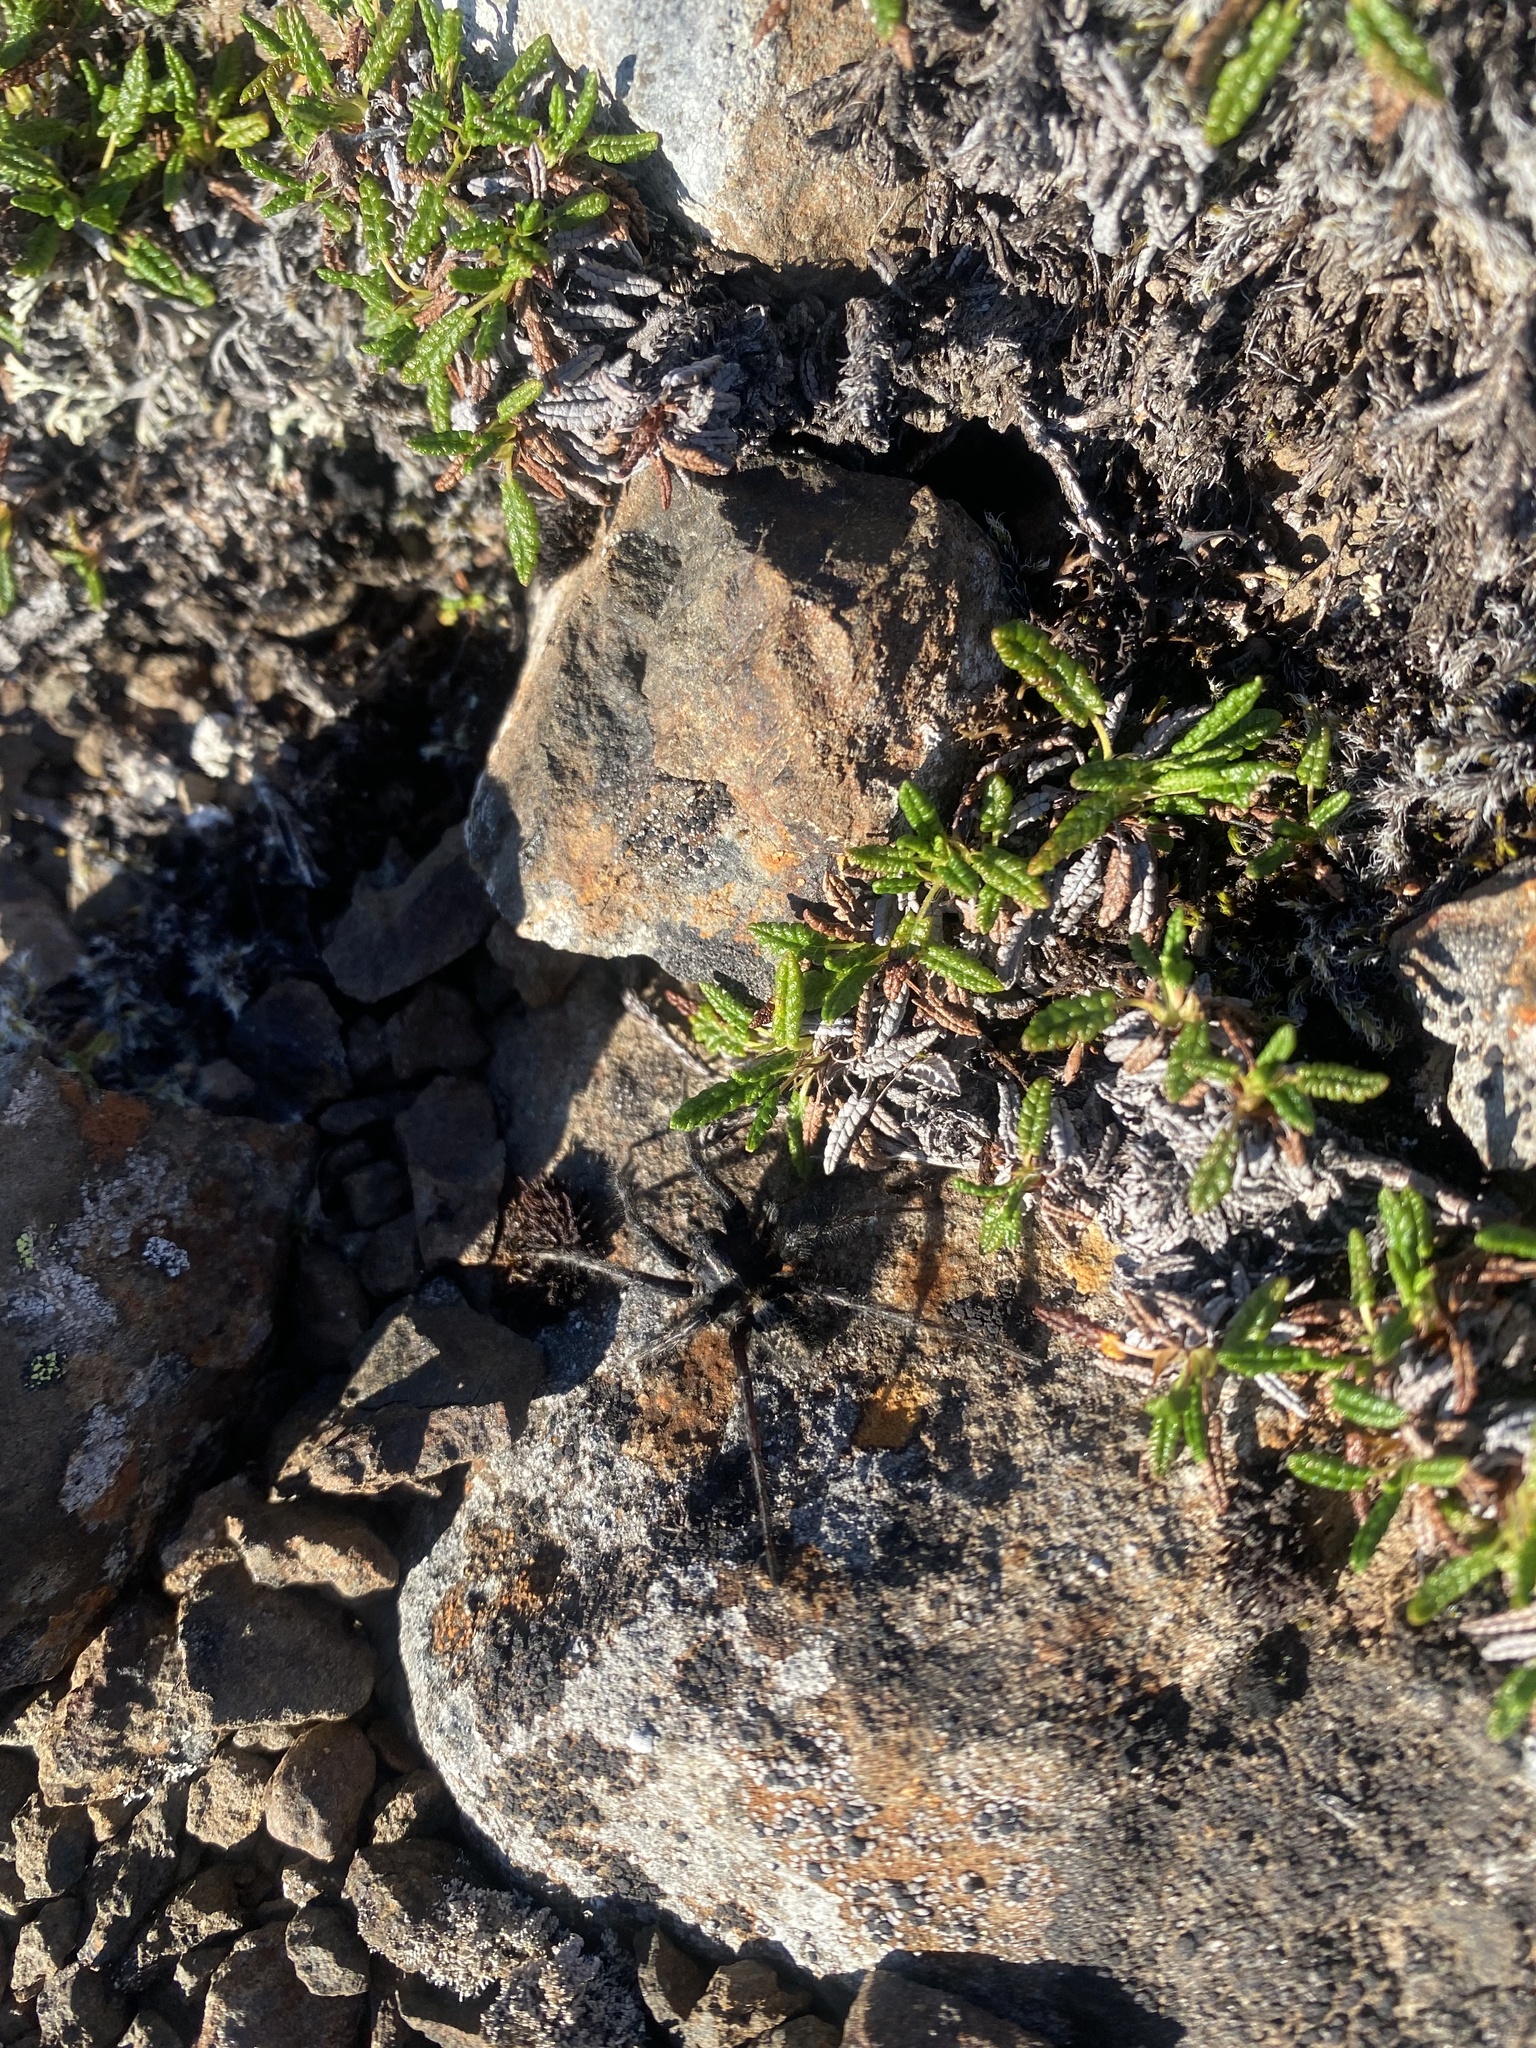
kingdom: Plantae
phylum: Tracheophyta
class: Magnoliopsida
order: Rosales
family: Rosaceae
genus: Dryas
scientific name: Dryas octopetala
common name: Eight-petal mountain-avens
